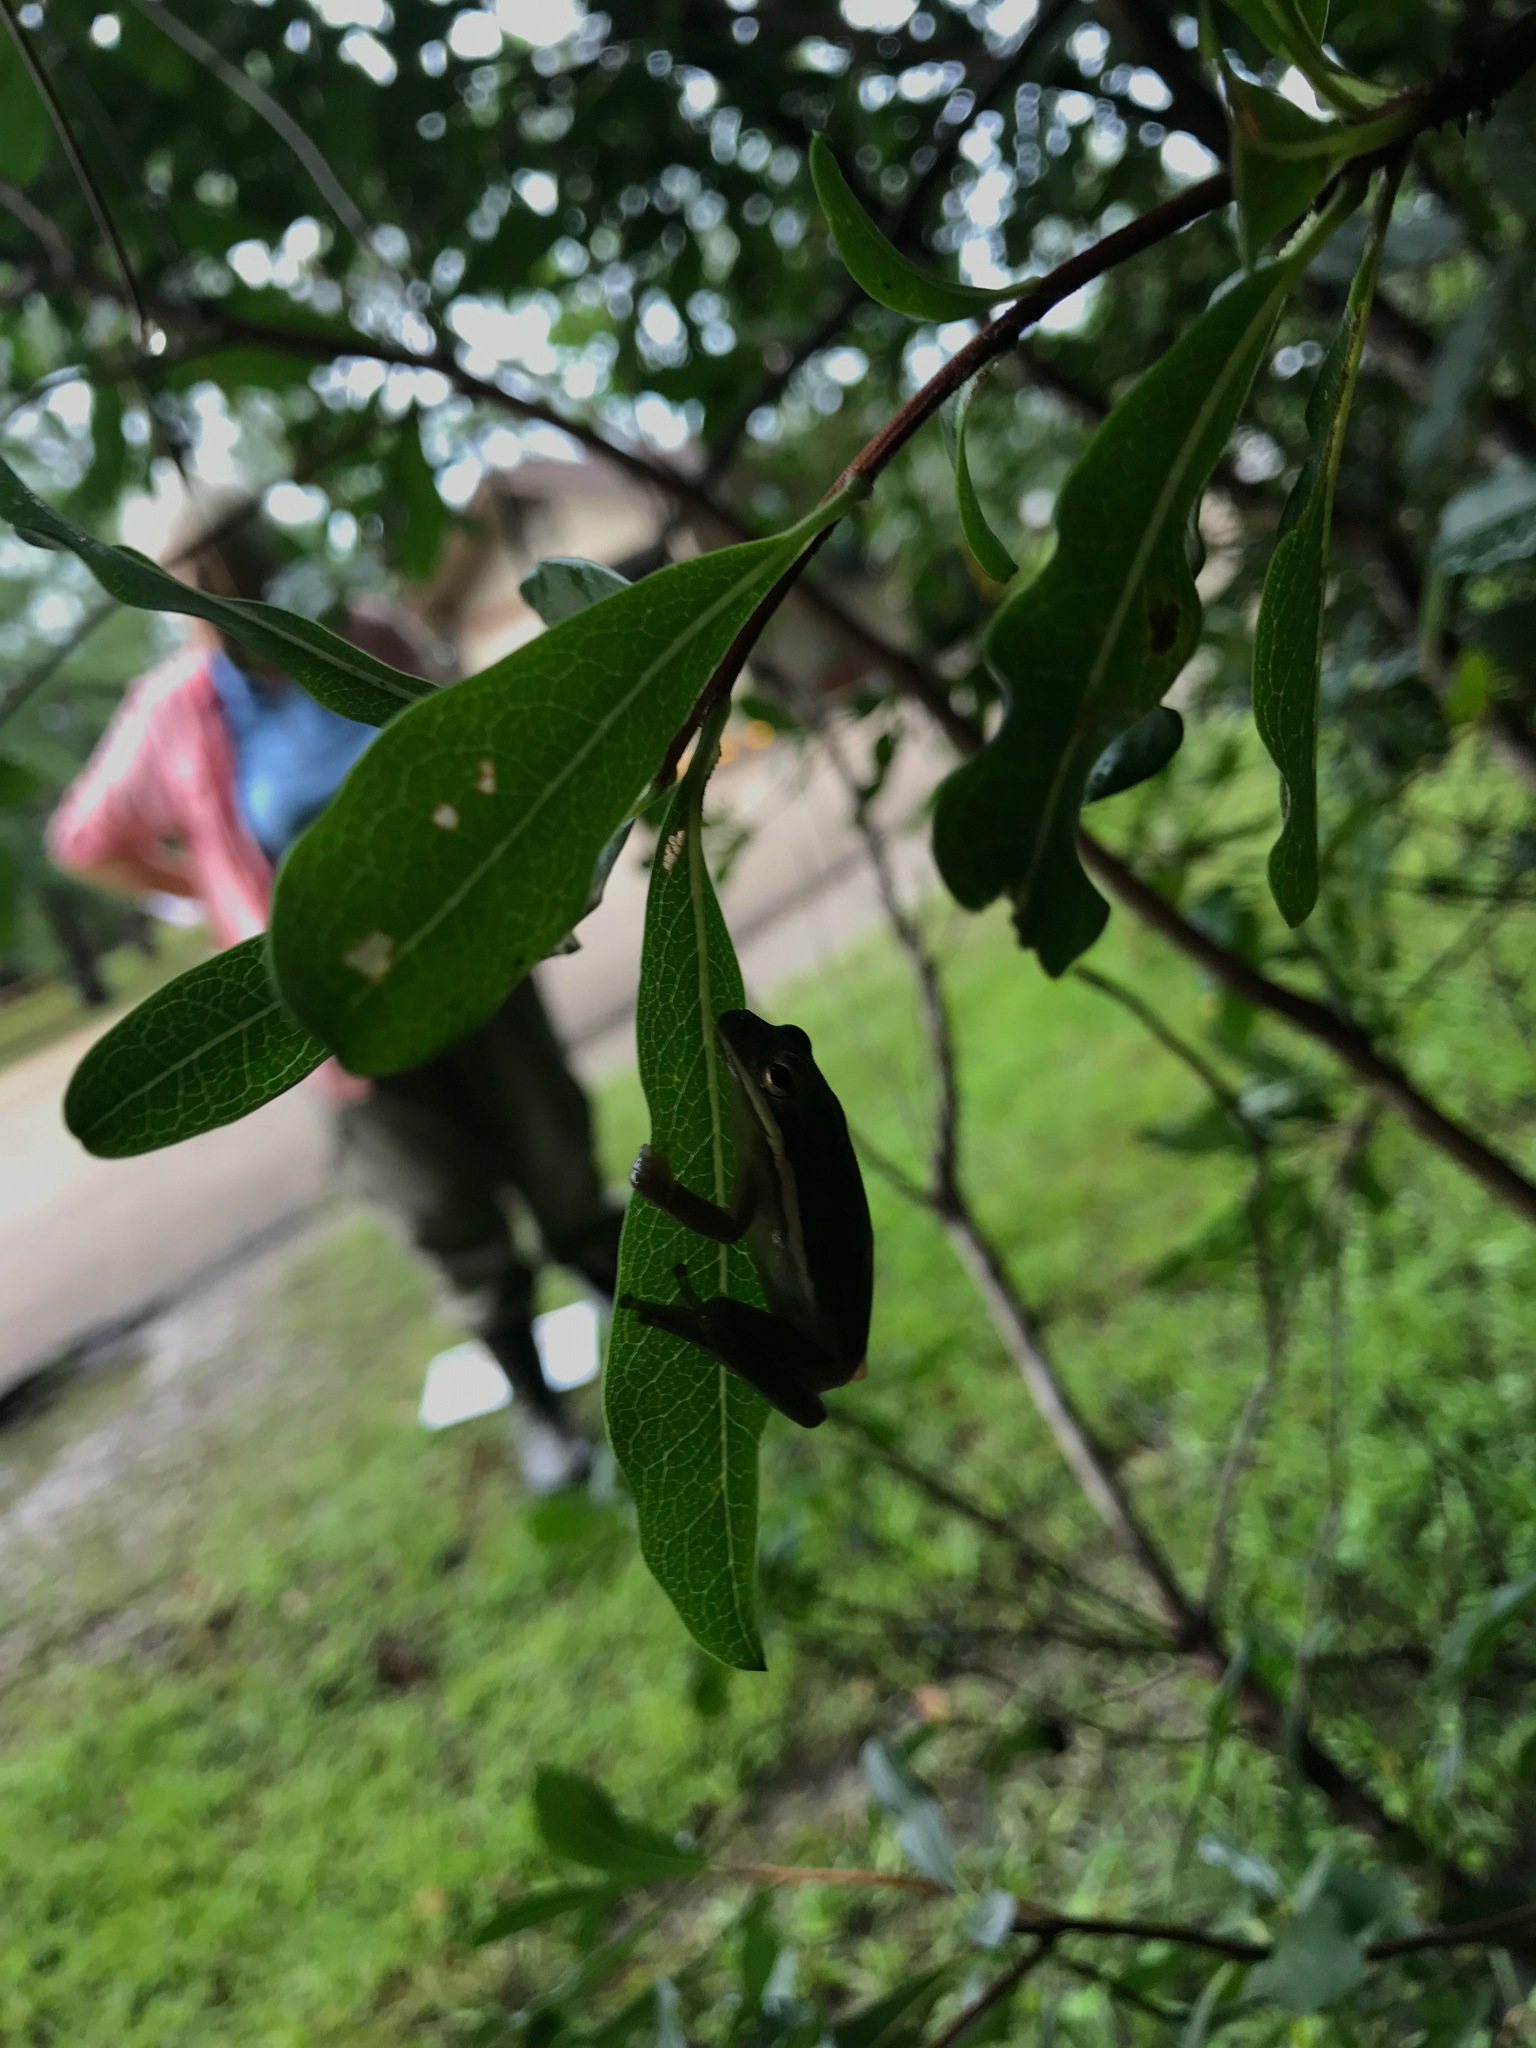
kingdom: Animalia
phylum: Chordata
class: Amphibia
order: Anura
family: Hylidae
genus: Dryophytes
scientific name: Dryophytes cinereus
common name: Green treefrog
